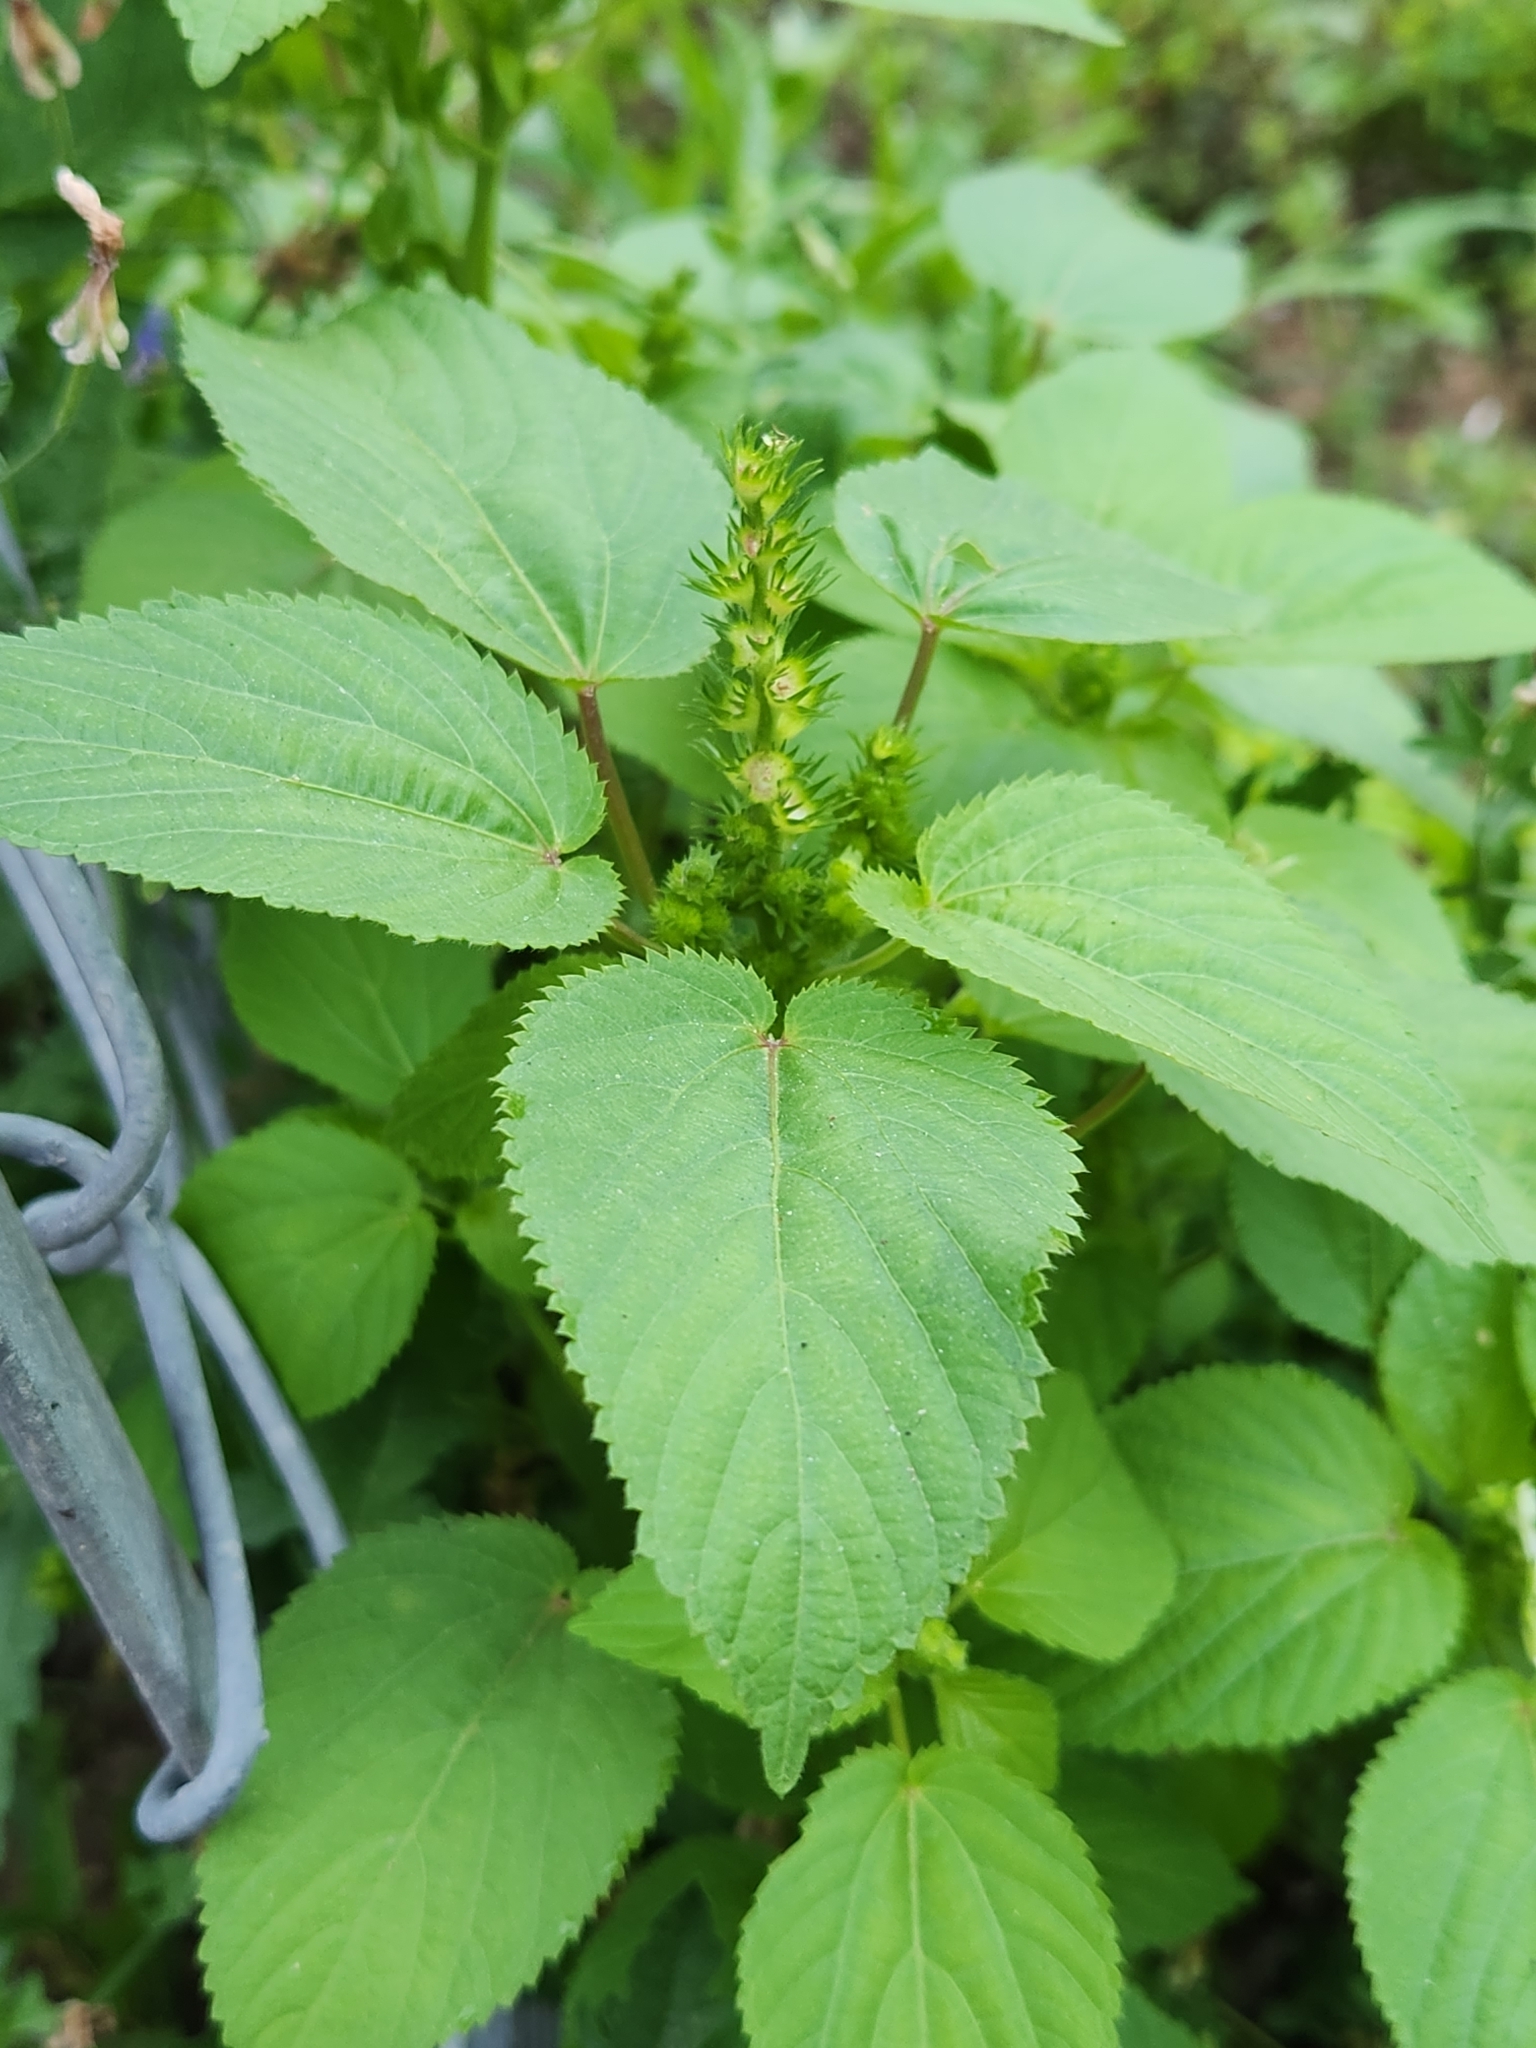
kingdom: Plantae
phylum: Tracheophyta
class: Magnoliopsida
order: Malpighiales
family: Euphorbiaceae
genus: Acalypha
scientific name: Acalypha ostryifolia
